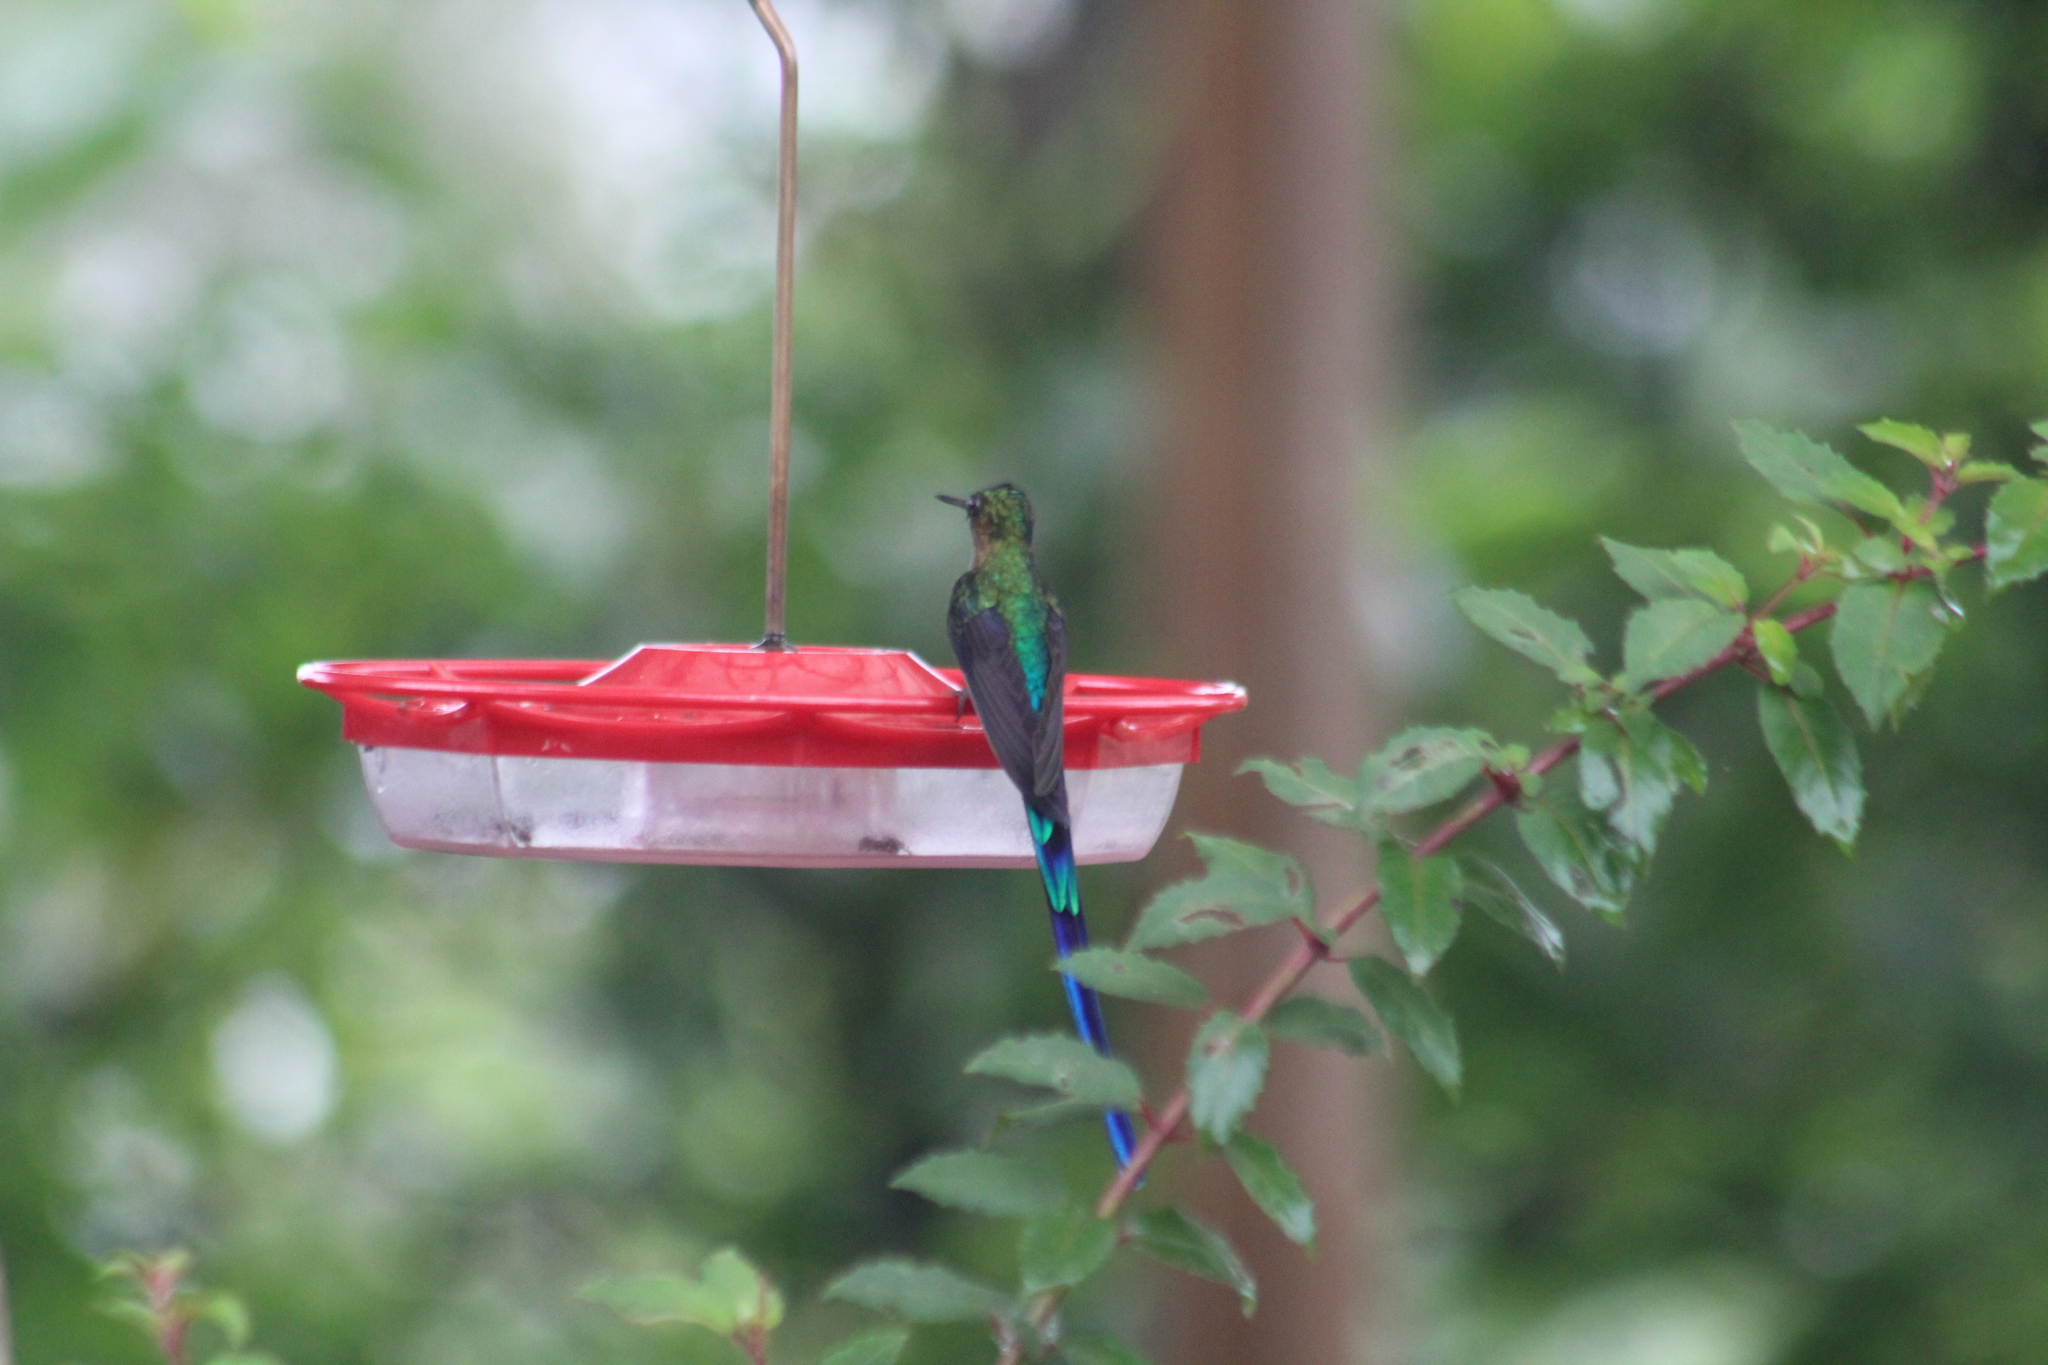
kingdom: Animalia
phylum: Chordata
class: Aves
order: Apodiformes
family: Trochilidae
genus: Aglaiocercus
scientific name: Aglaiocercus coelestis
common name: Violet-tailed sylph
